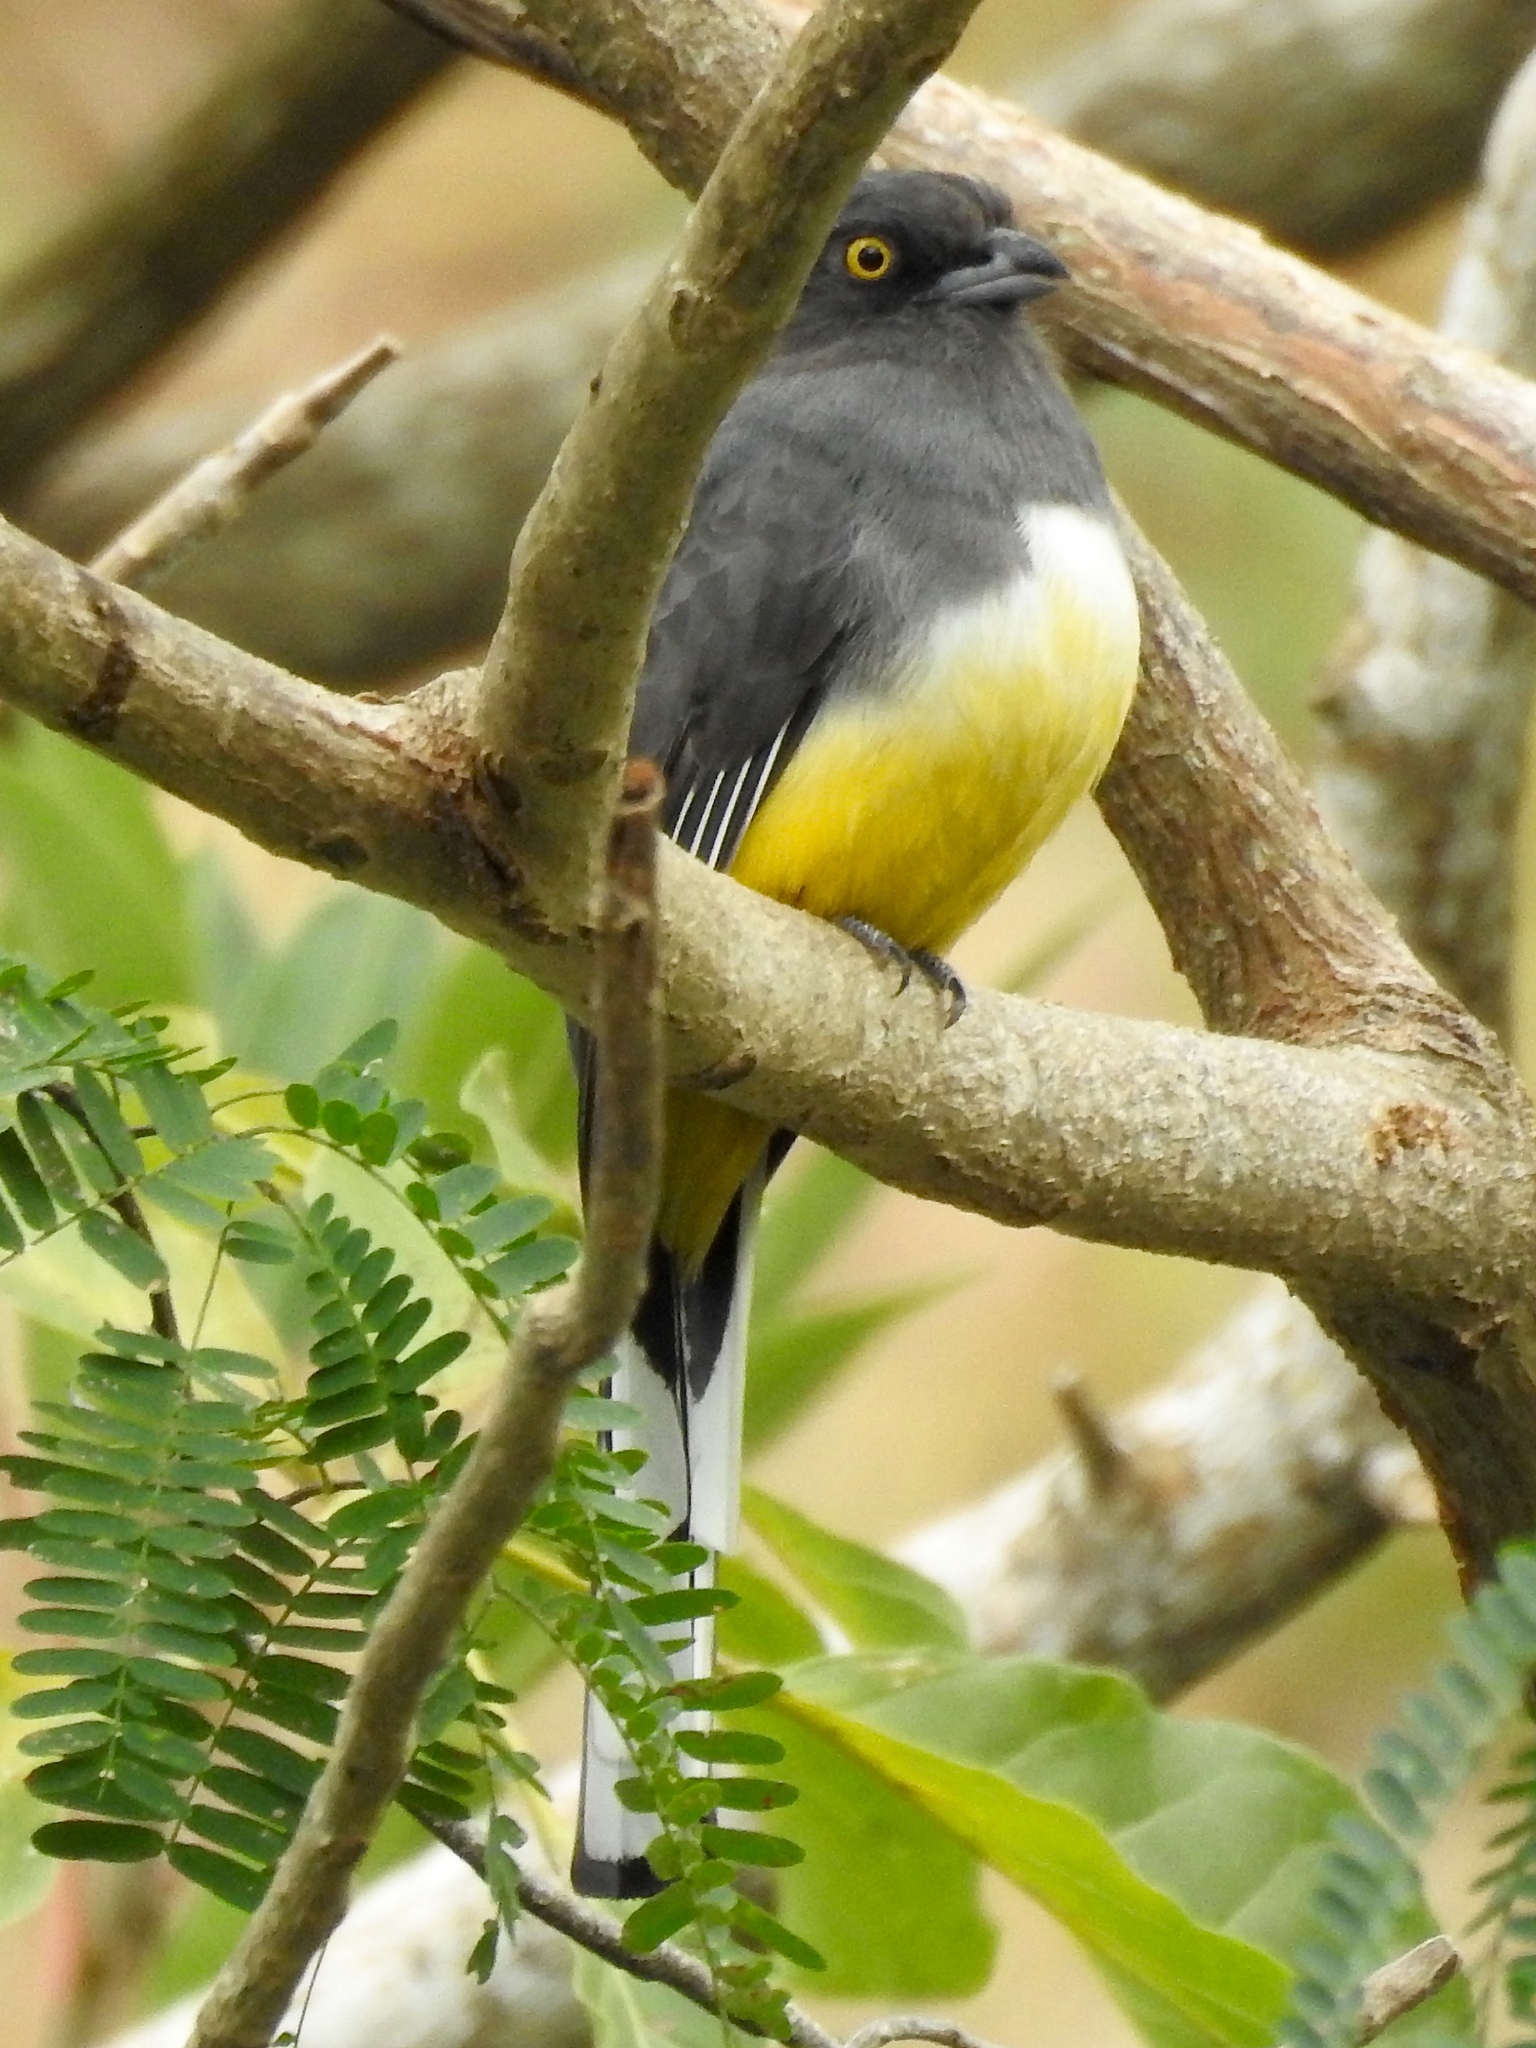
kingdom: Animalia
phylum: Chordata
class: Aves
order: Trogoniformes
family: Trogonidae
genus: Trogon
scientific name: Trogon citreolus
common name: Citreoline trogon
